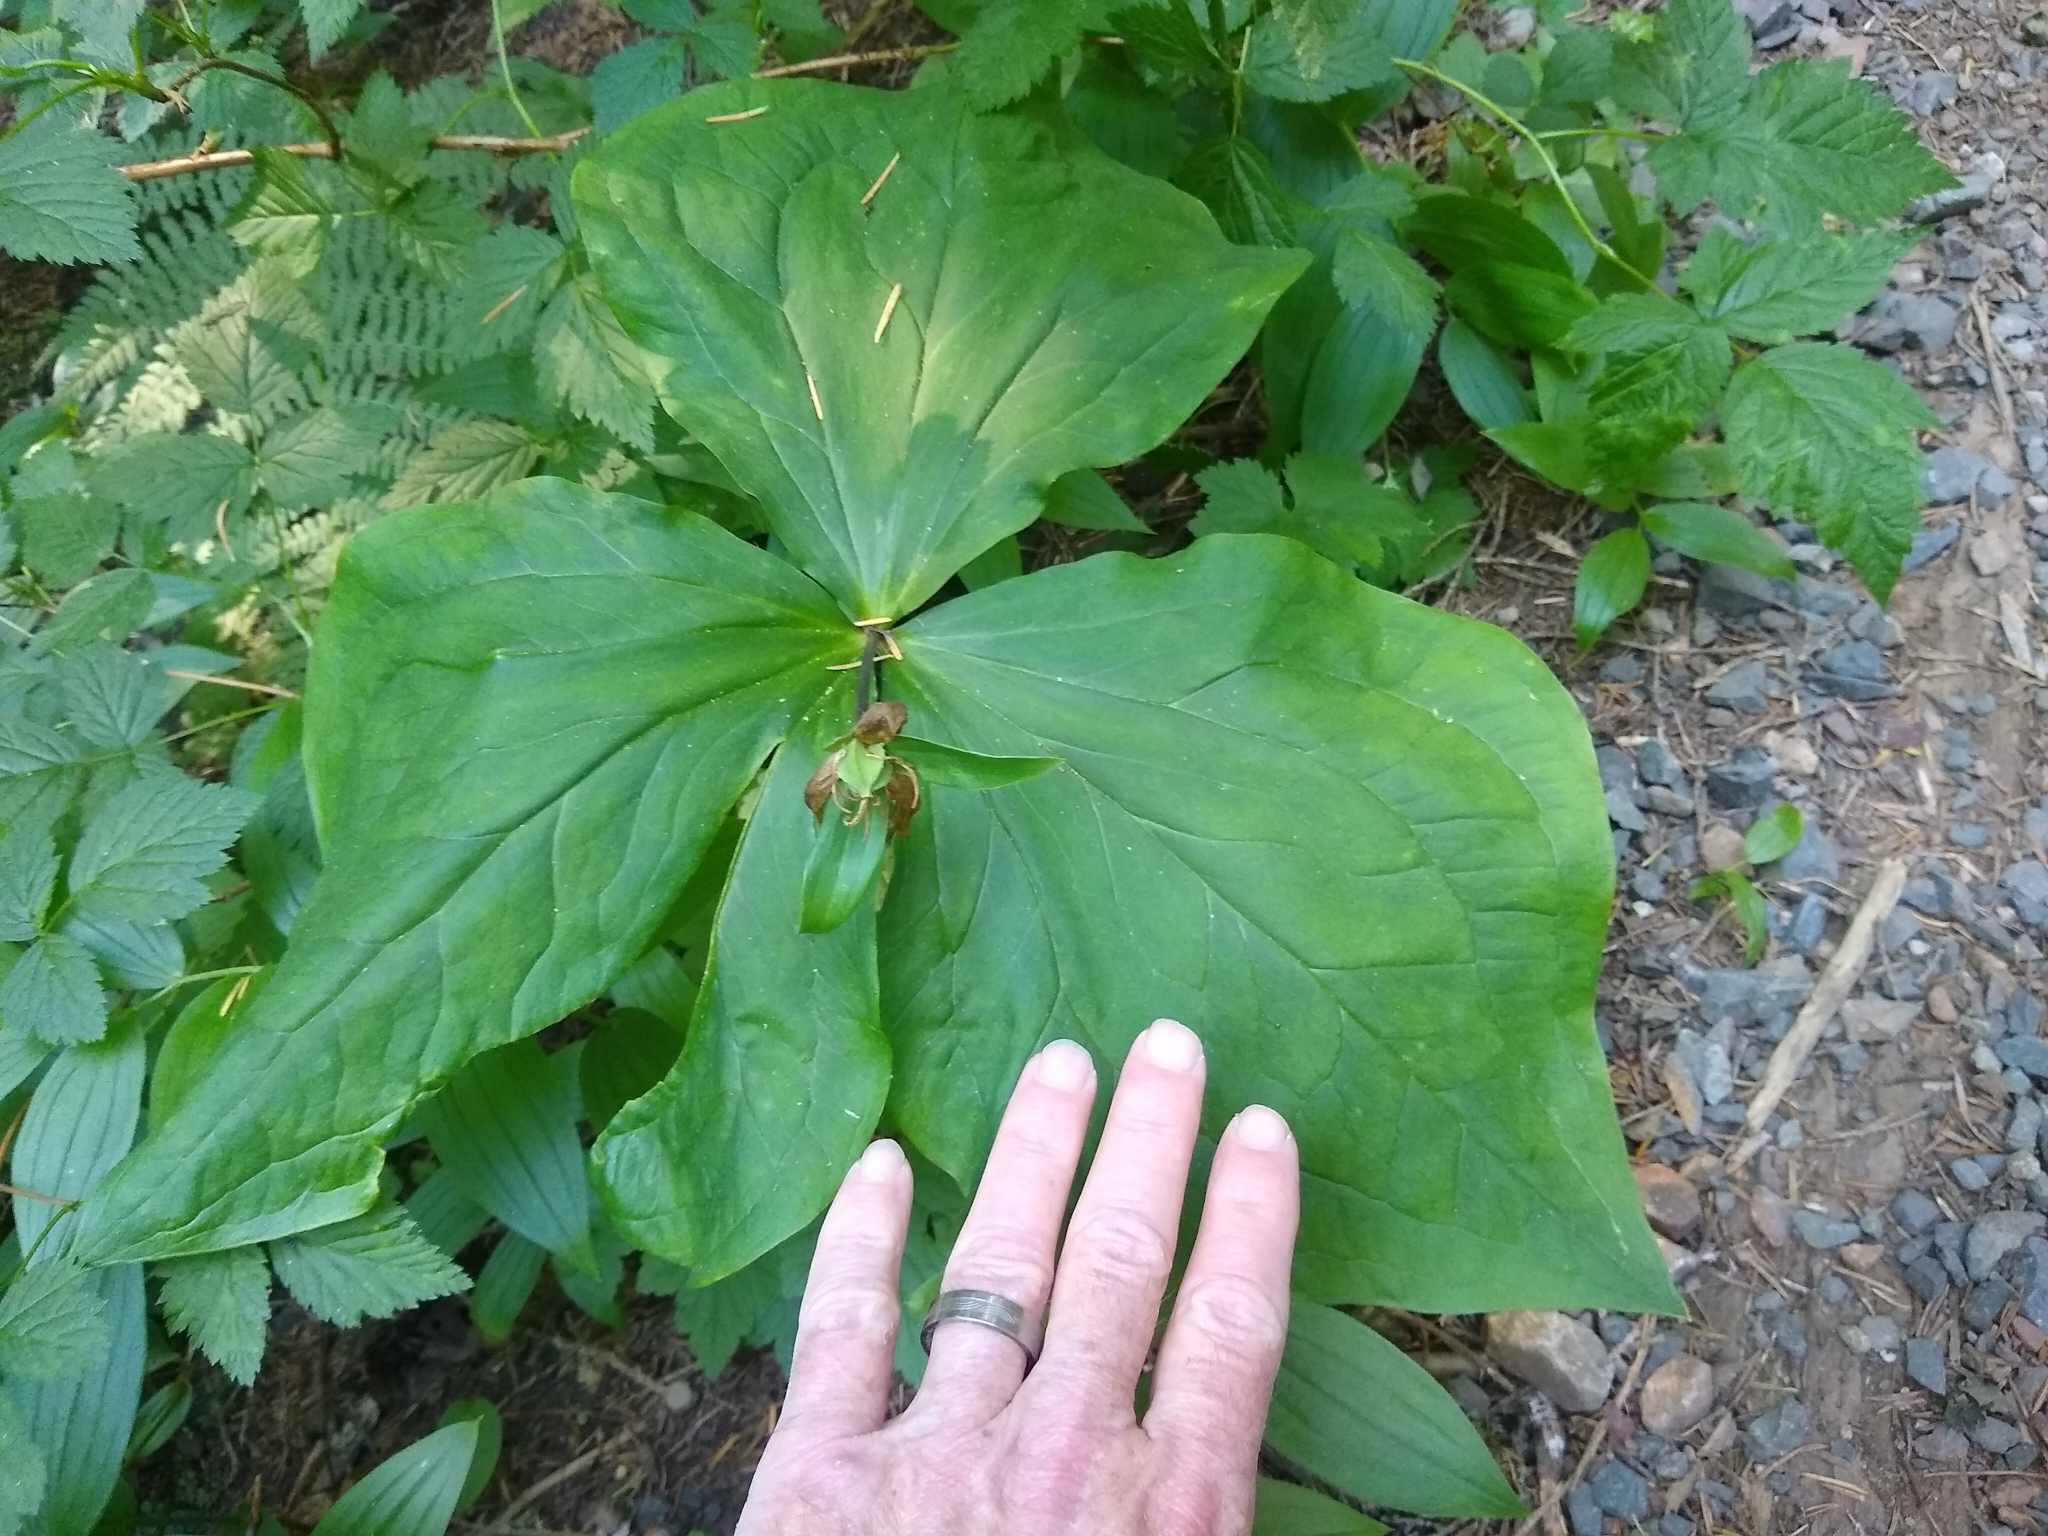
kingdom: Plantae
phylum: Tracheophyta
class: Liliopsida
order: Liliales
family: Melanthiaceae
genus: Trillium
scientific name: Trillium ovatum
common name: Pacific trillium
